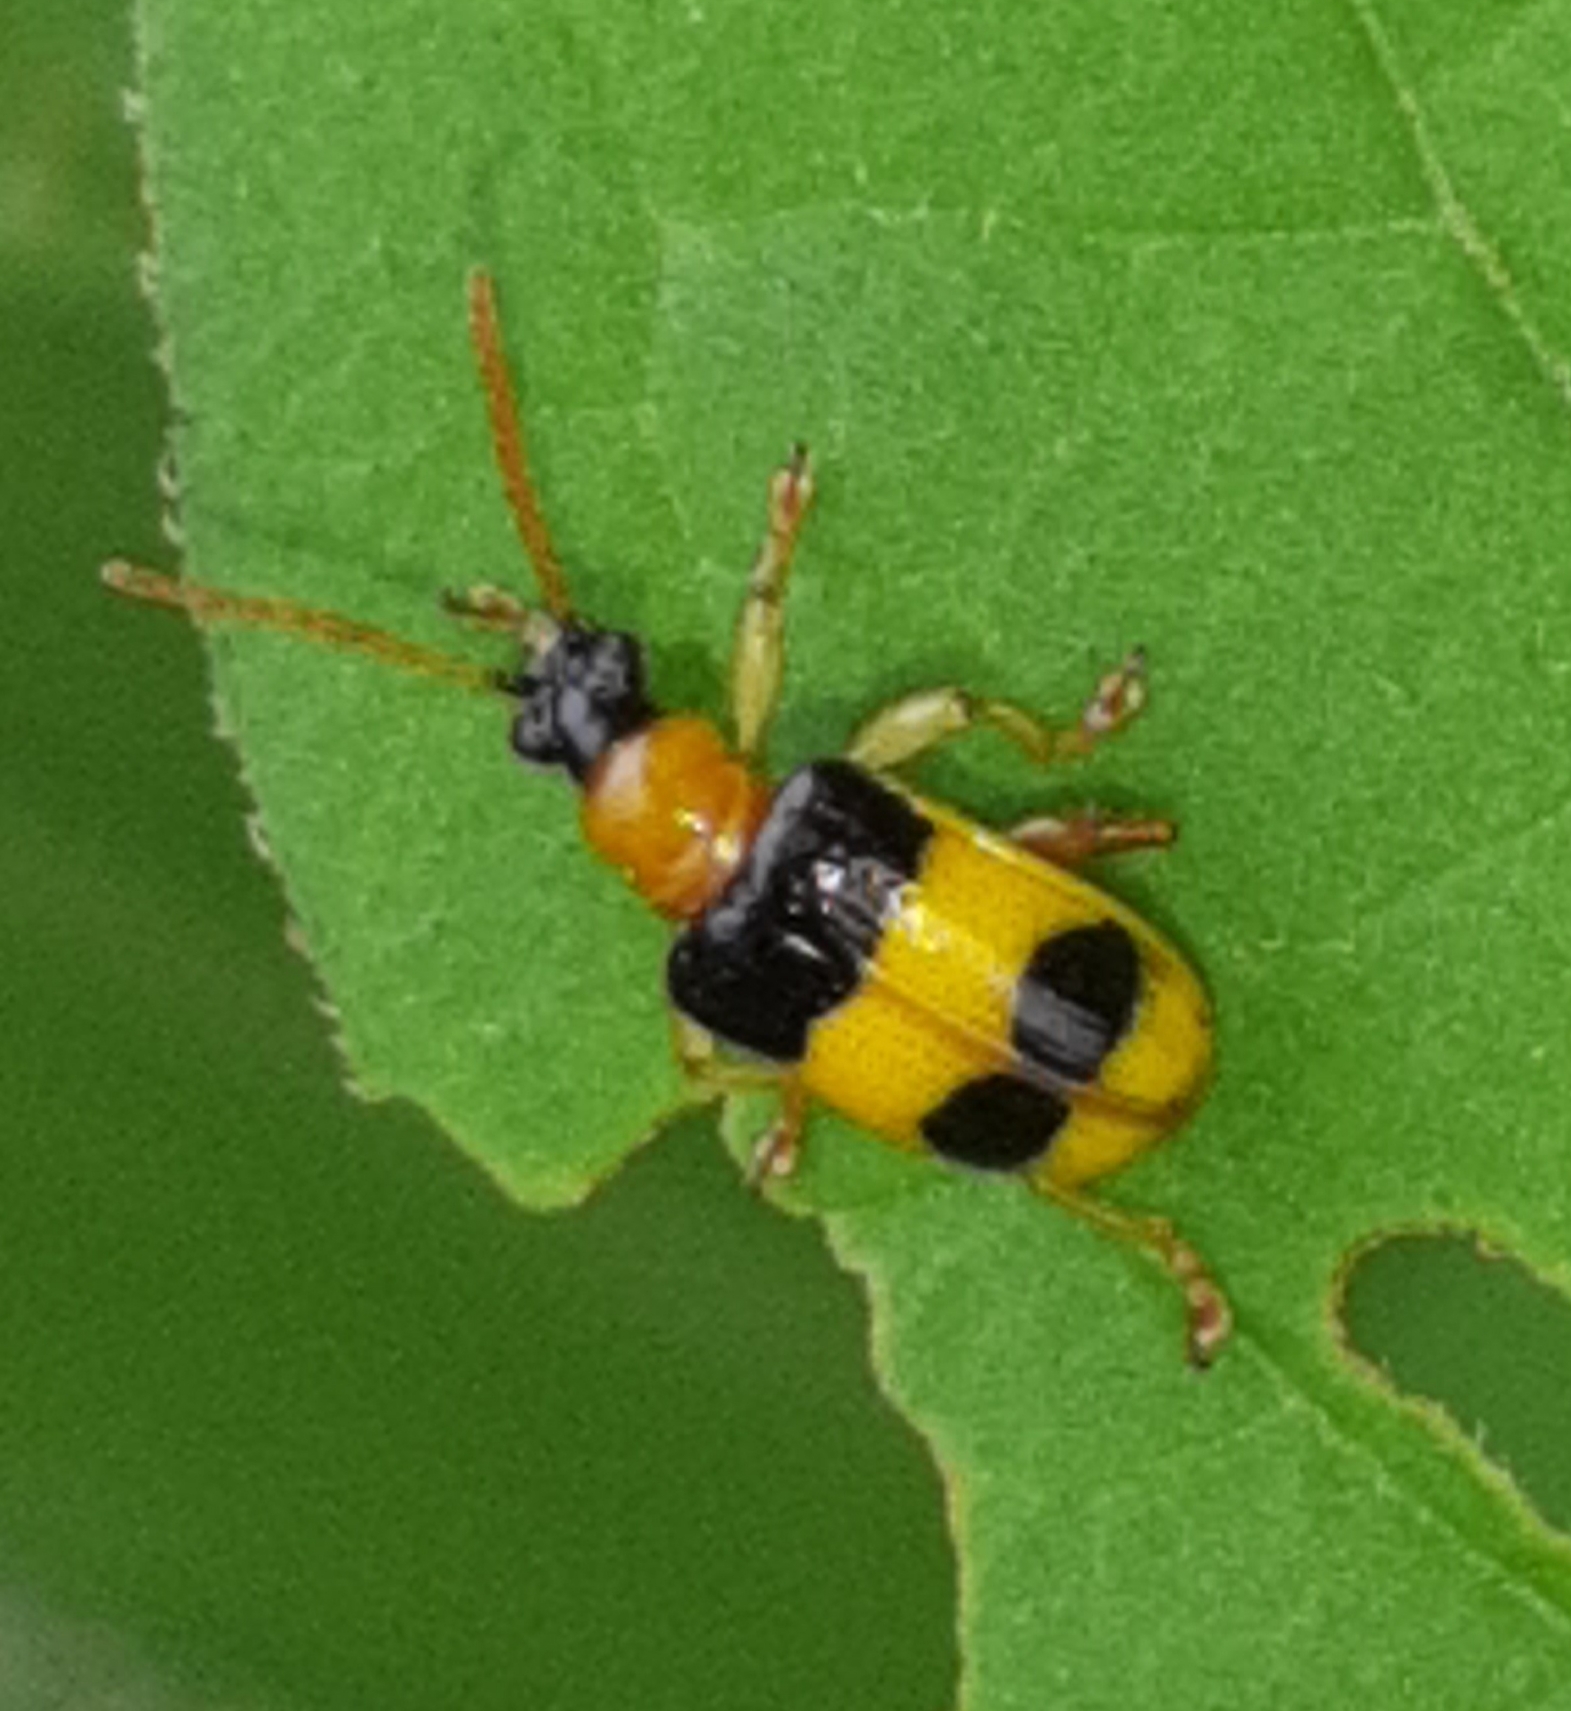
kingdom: Animalia
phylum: Arthropoda
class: Insecta
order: Coleoptera
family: Chrysomelidae
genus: Lema
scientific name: Lema
